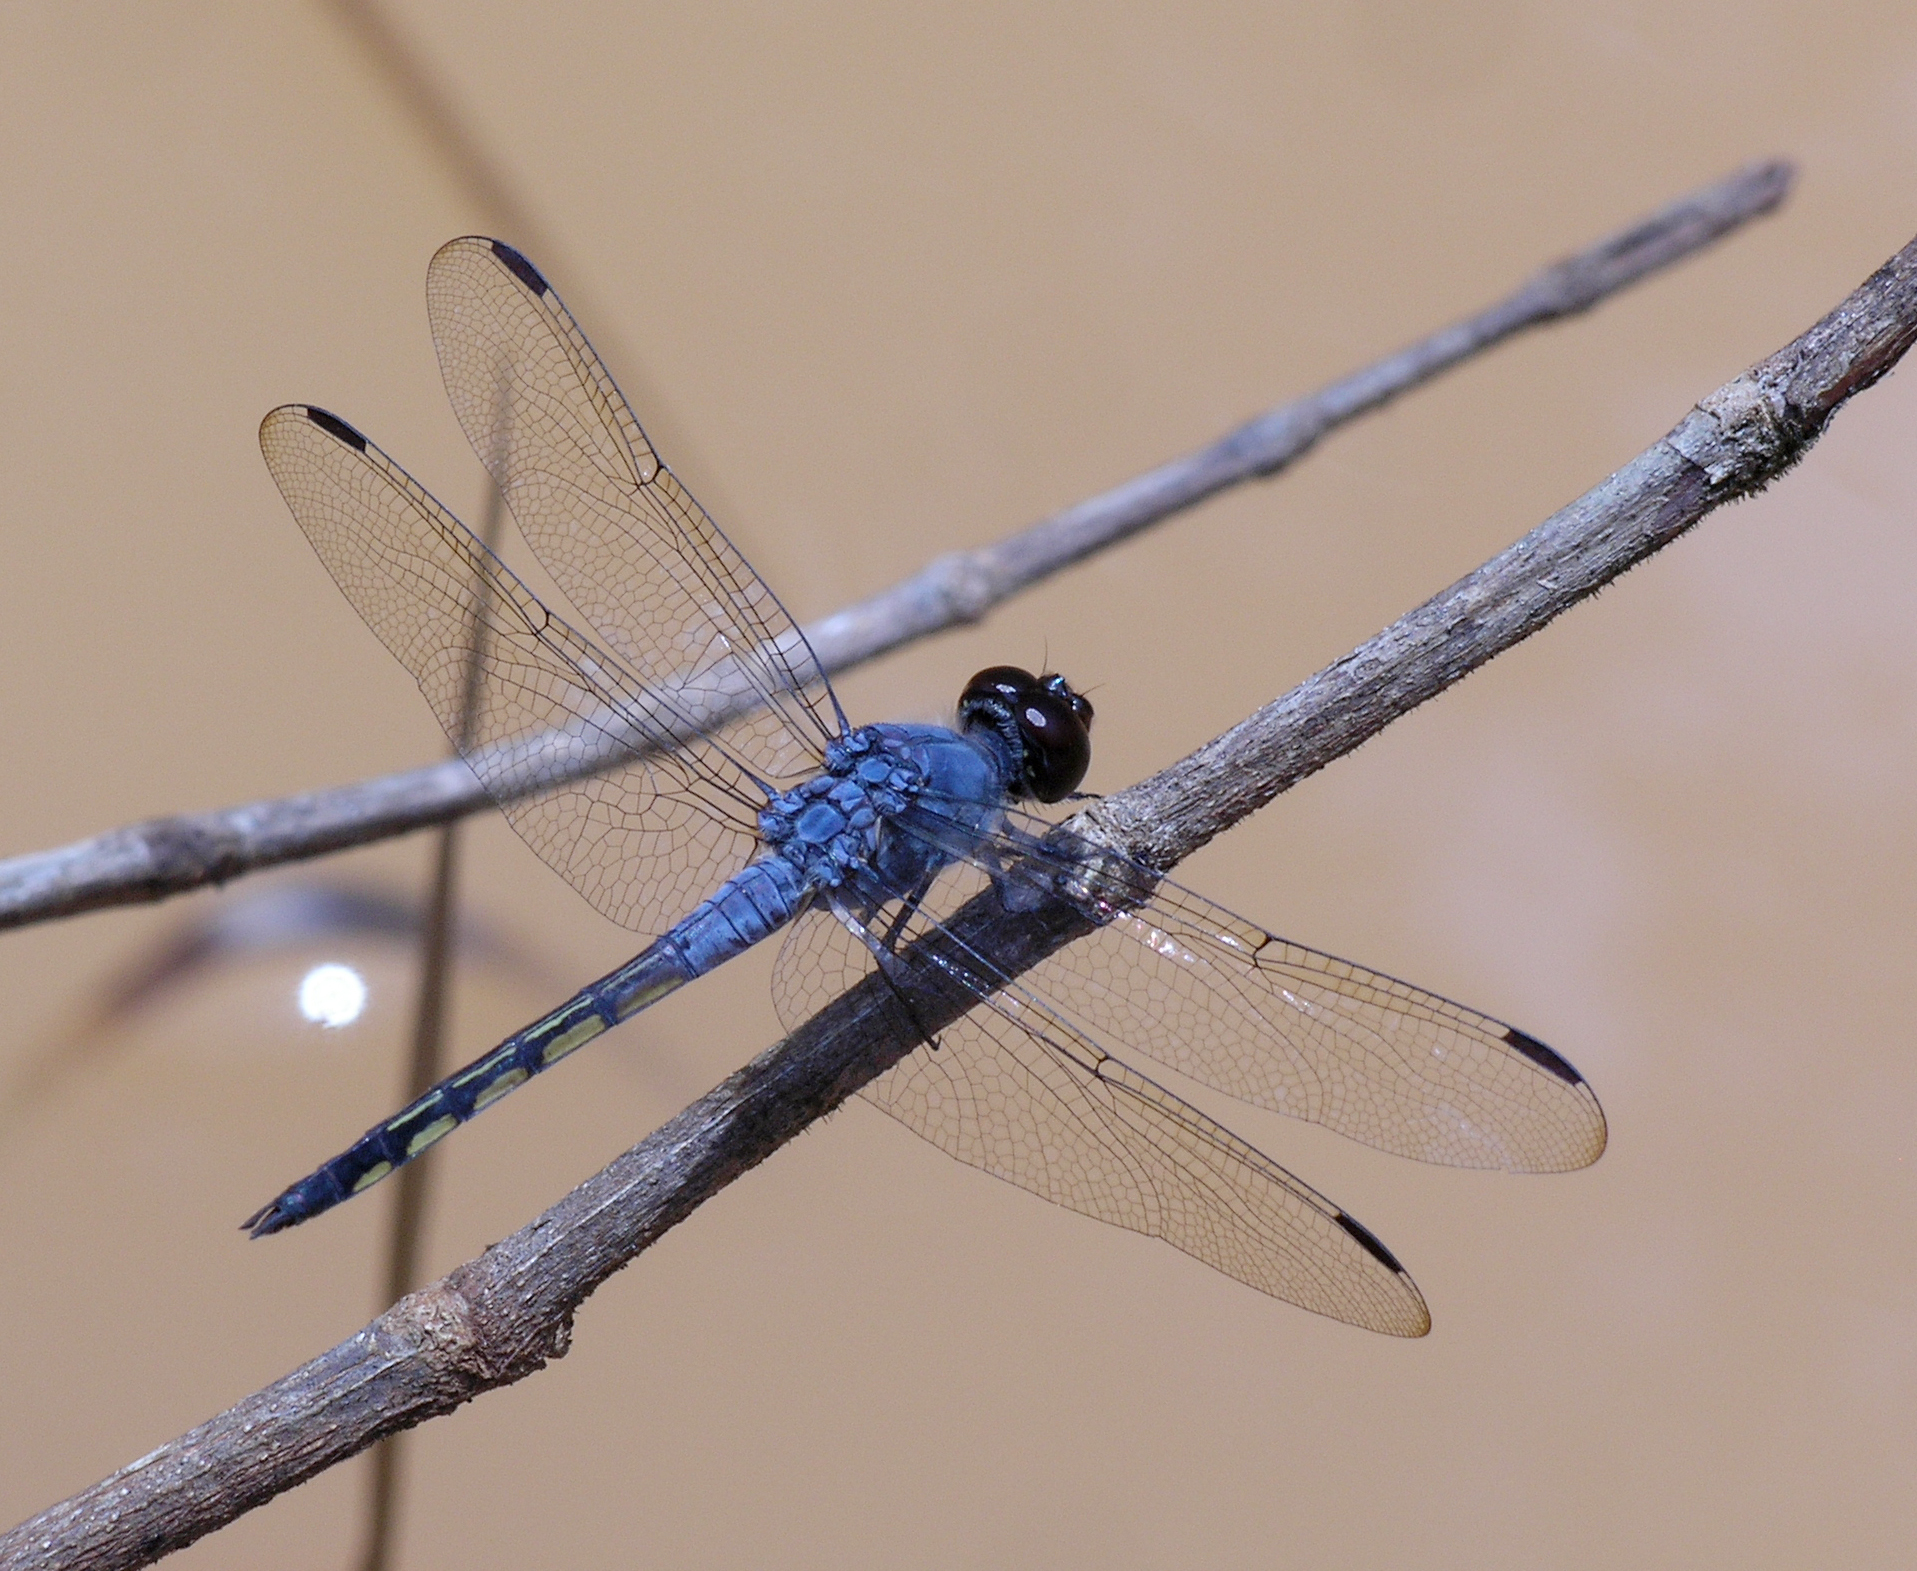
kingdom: Animalia
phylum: Arthropoda
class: Insecta
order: Odonata
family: Libellulidae
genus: Potamarcha
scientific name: Potamarcha congener
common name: Blue chaser
